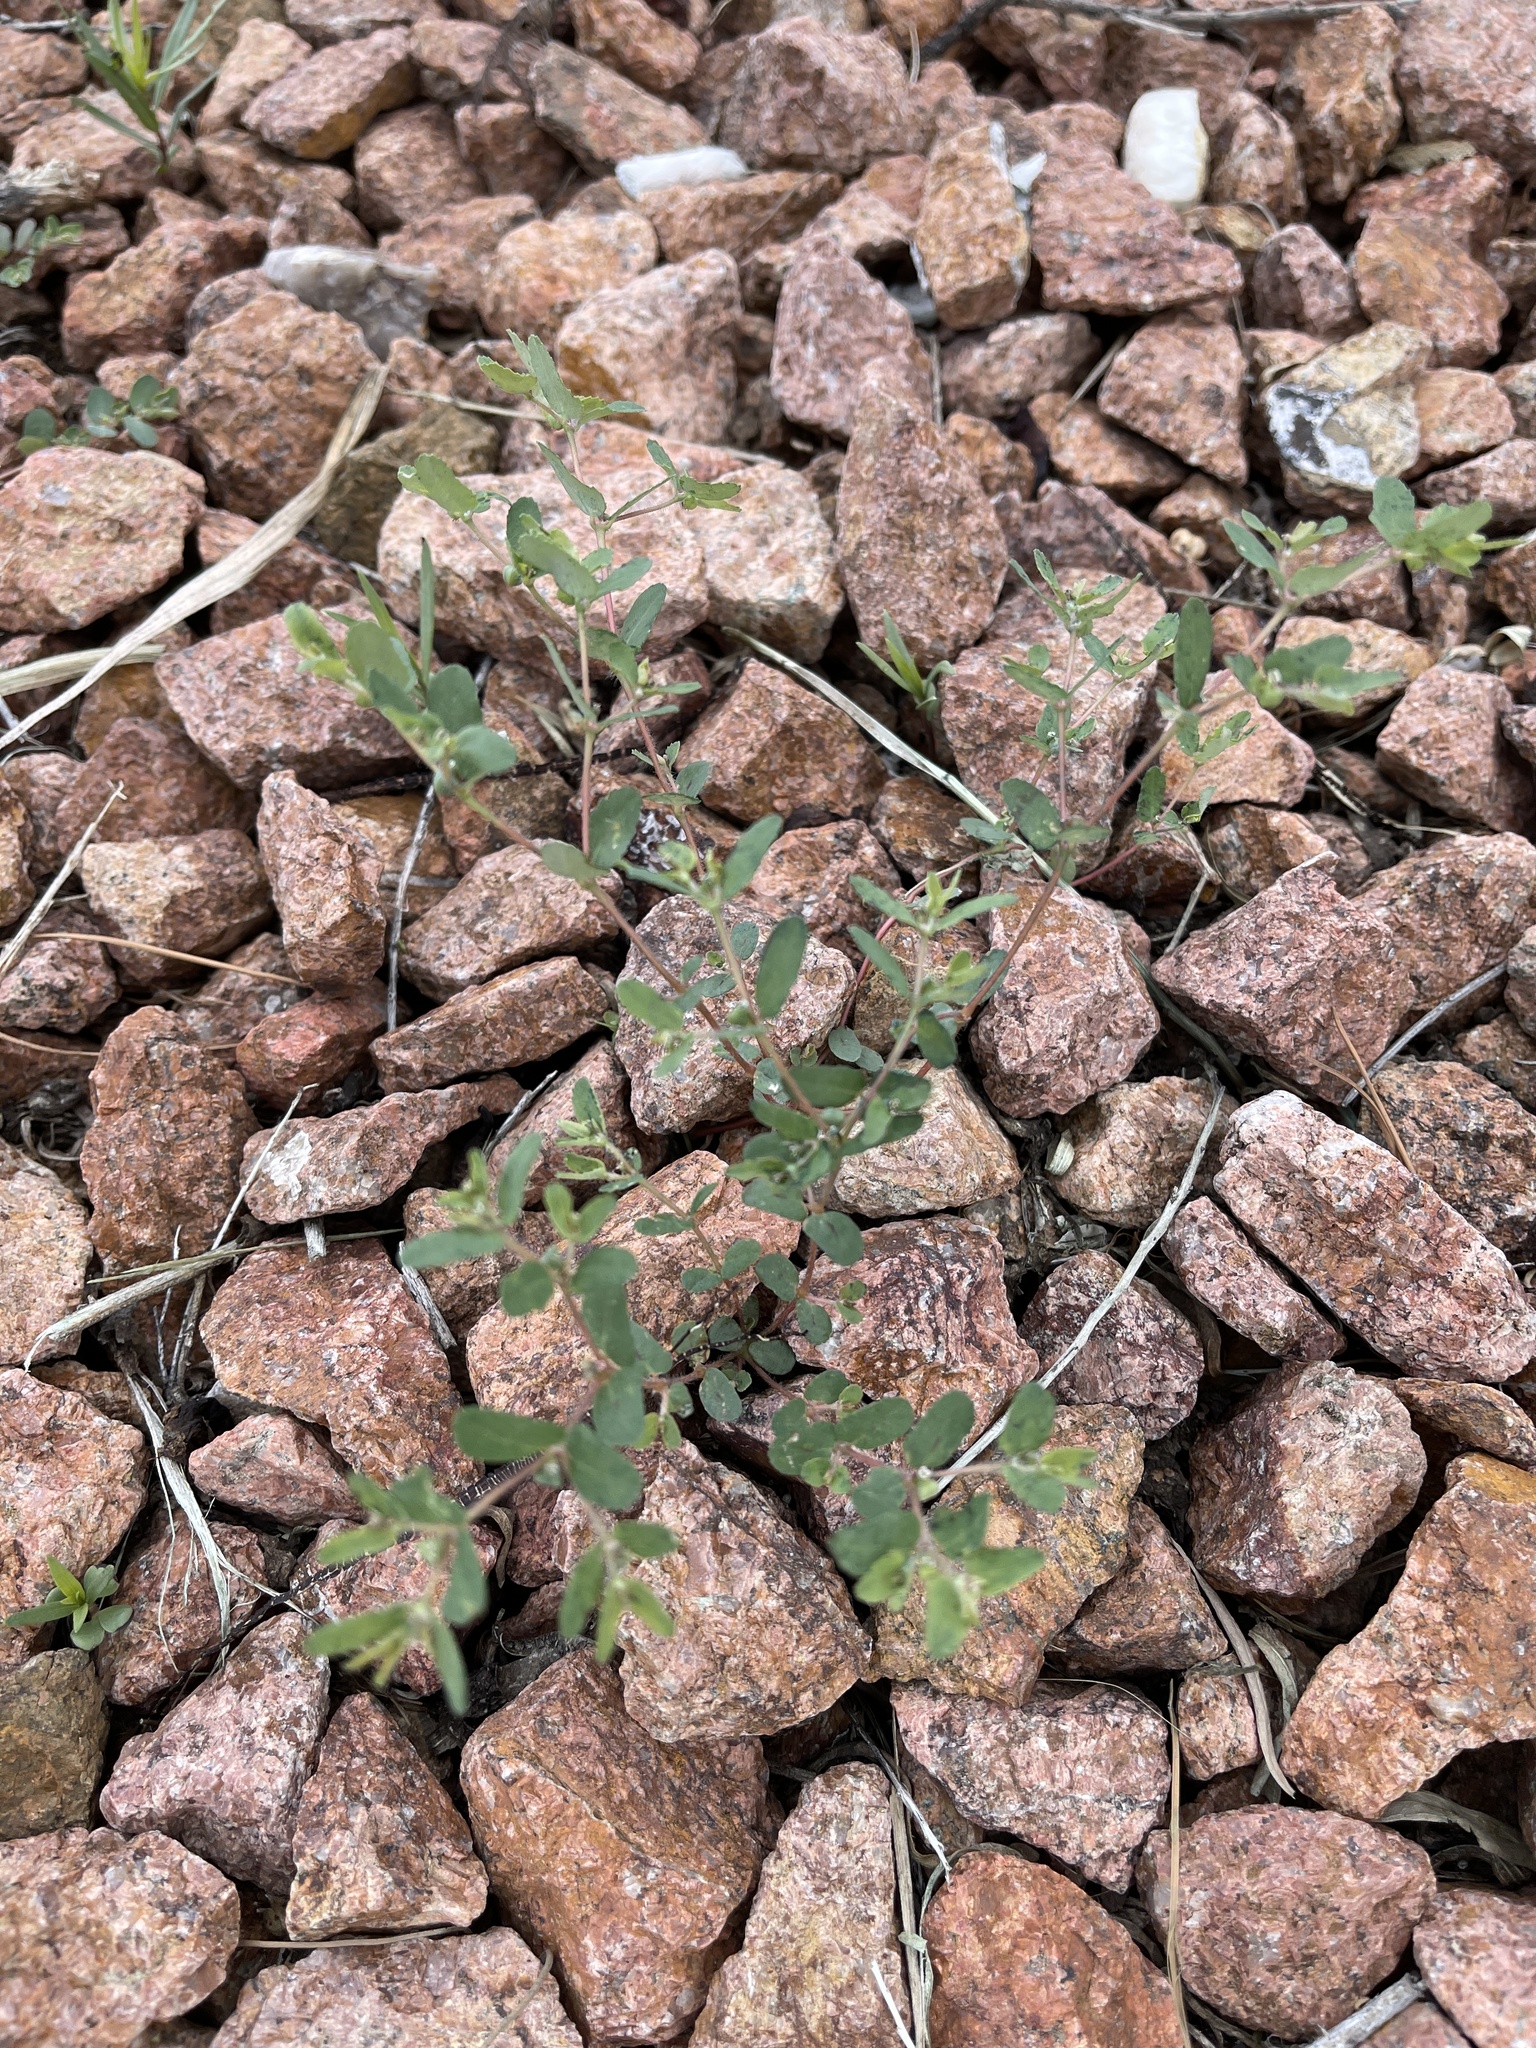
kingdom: Plantae
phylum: Tracheophyta
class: Magnoliopsida
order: Malpighiales
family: Euphorbiaceae
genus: Euphorbia
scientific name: Euphorbia serrula
